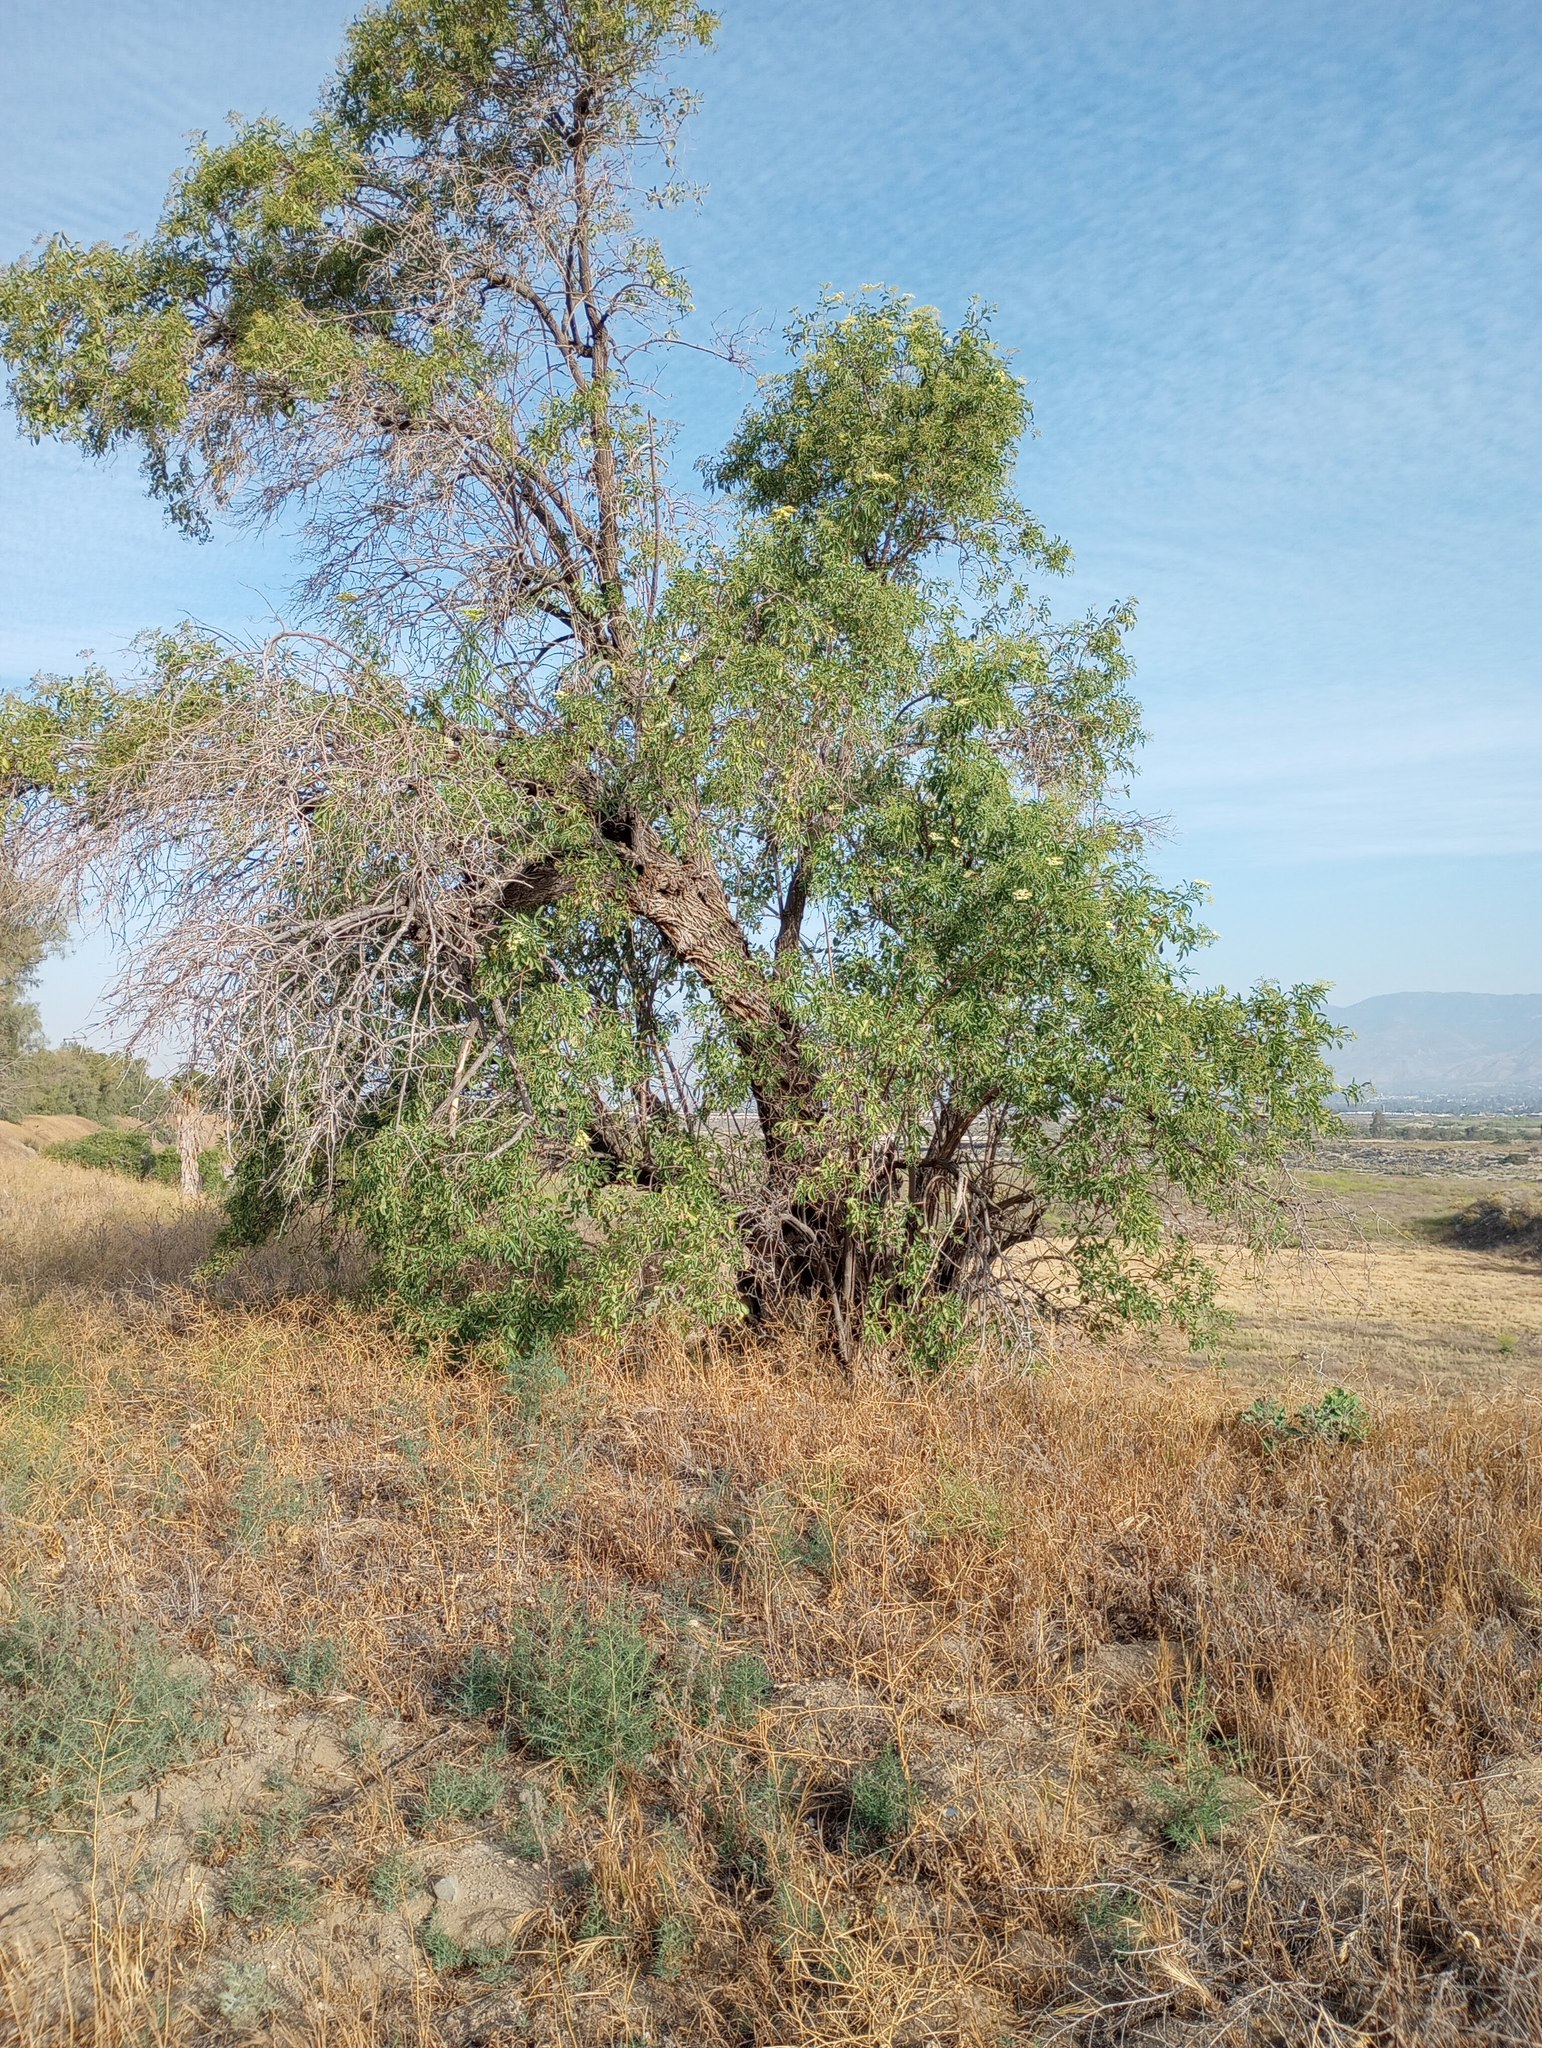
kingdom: Plantae
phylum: Tracheophyta
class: Magnoliopsida
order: Dipsacales
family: Viburnaceae
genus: Sambucus
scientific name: Sambucus cerulea
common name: Blue elder
